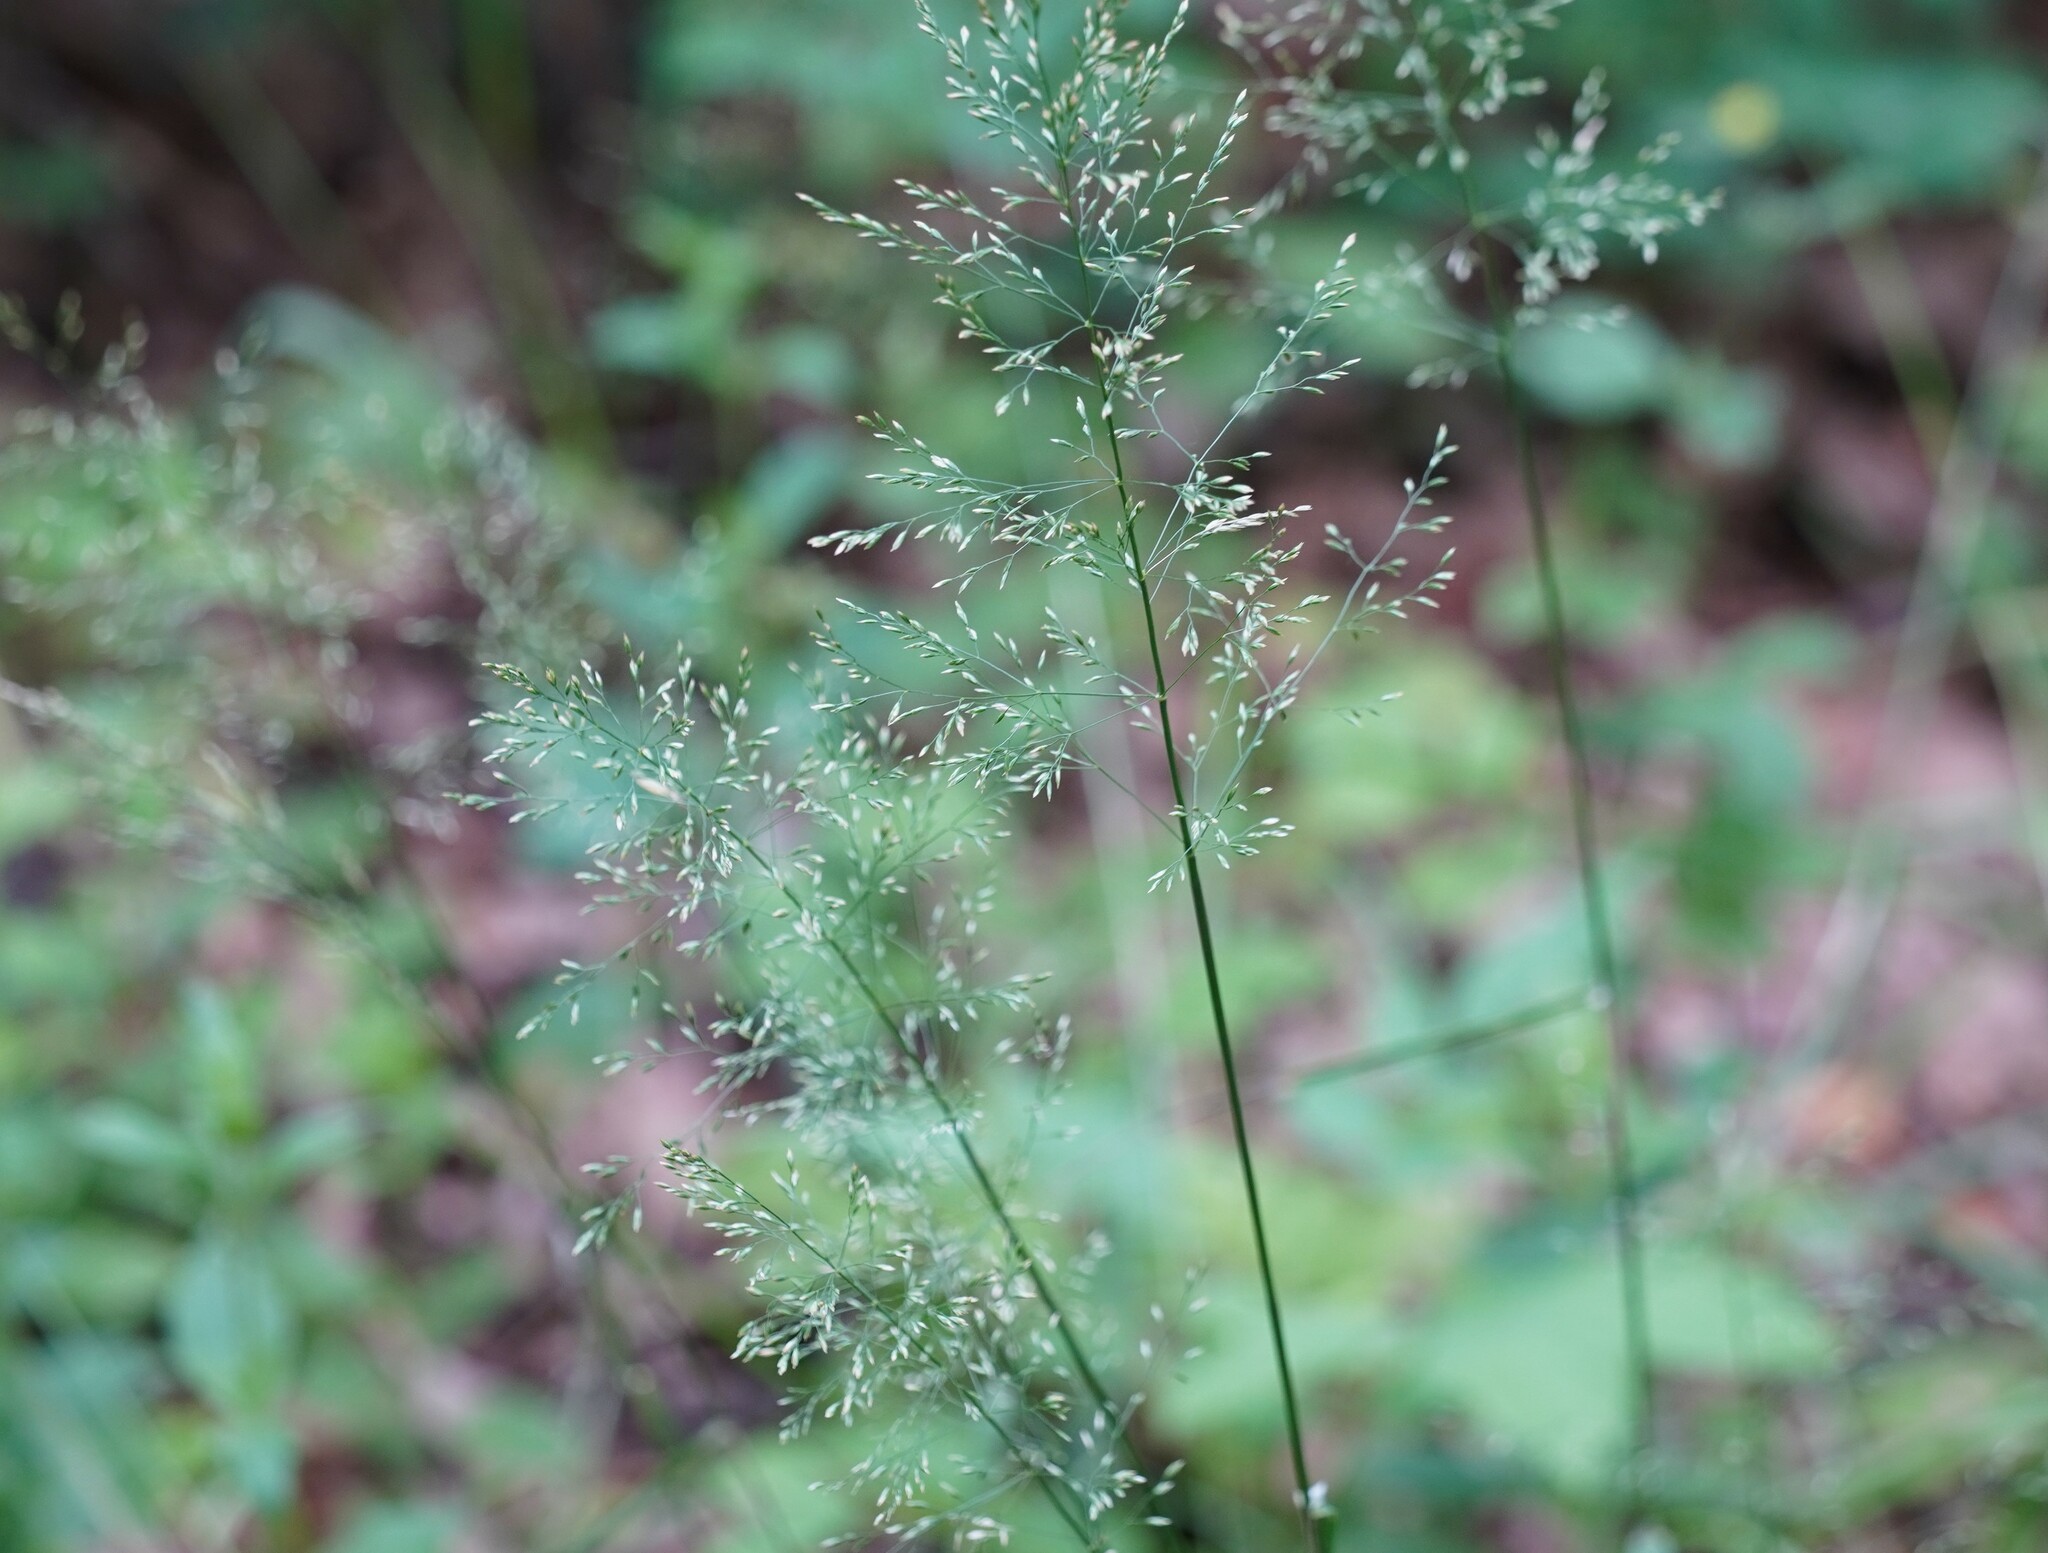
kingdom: Plantae
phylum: Tracheophyta
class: Liliopsida
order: Poales
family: Poaceae
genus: Poa
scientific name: Poa nemoralis
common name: Wood bluegrass
